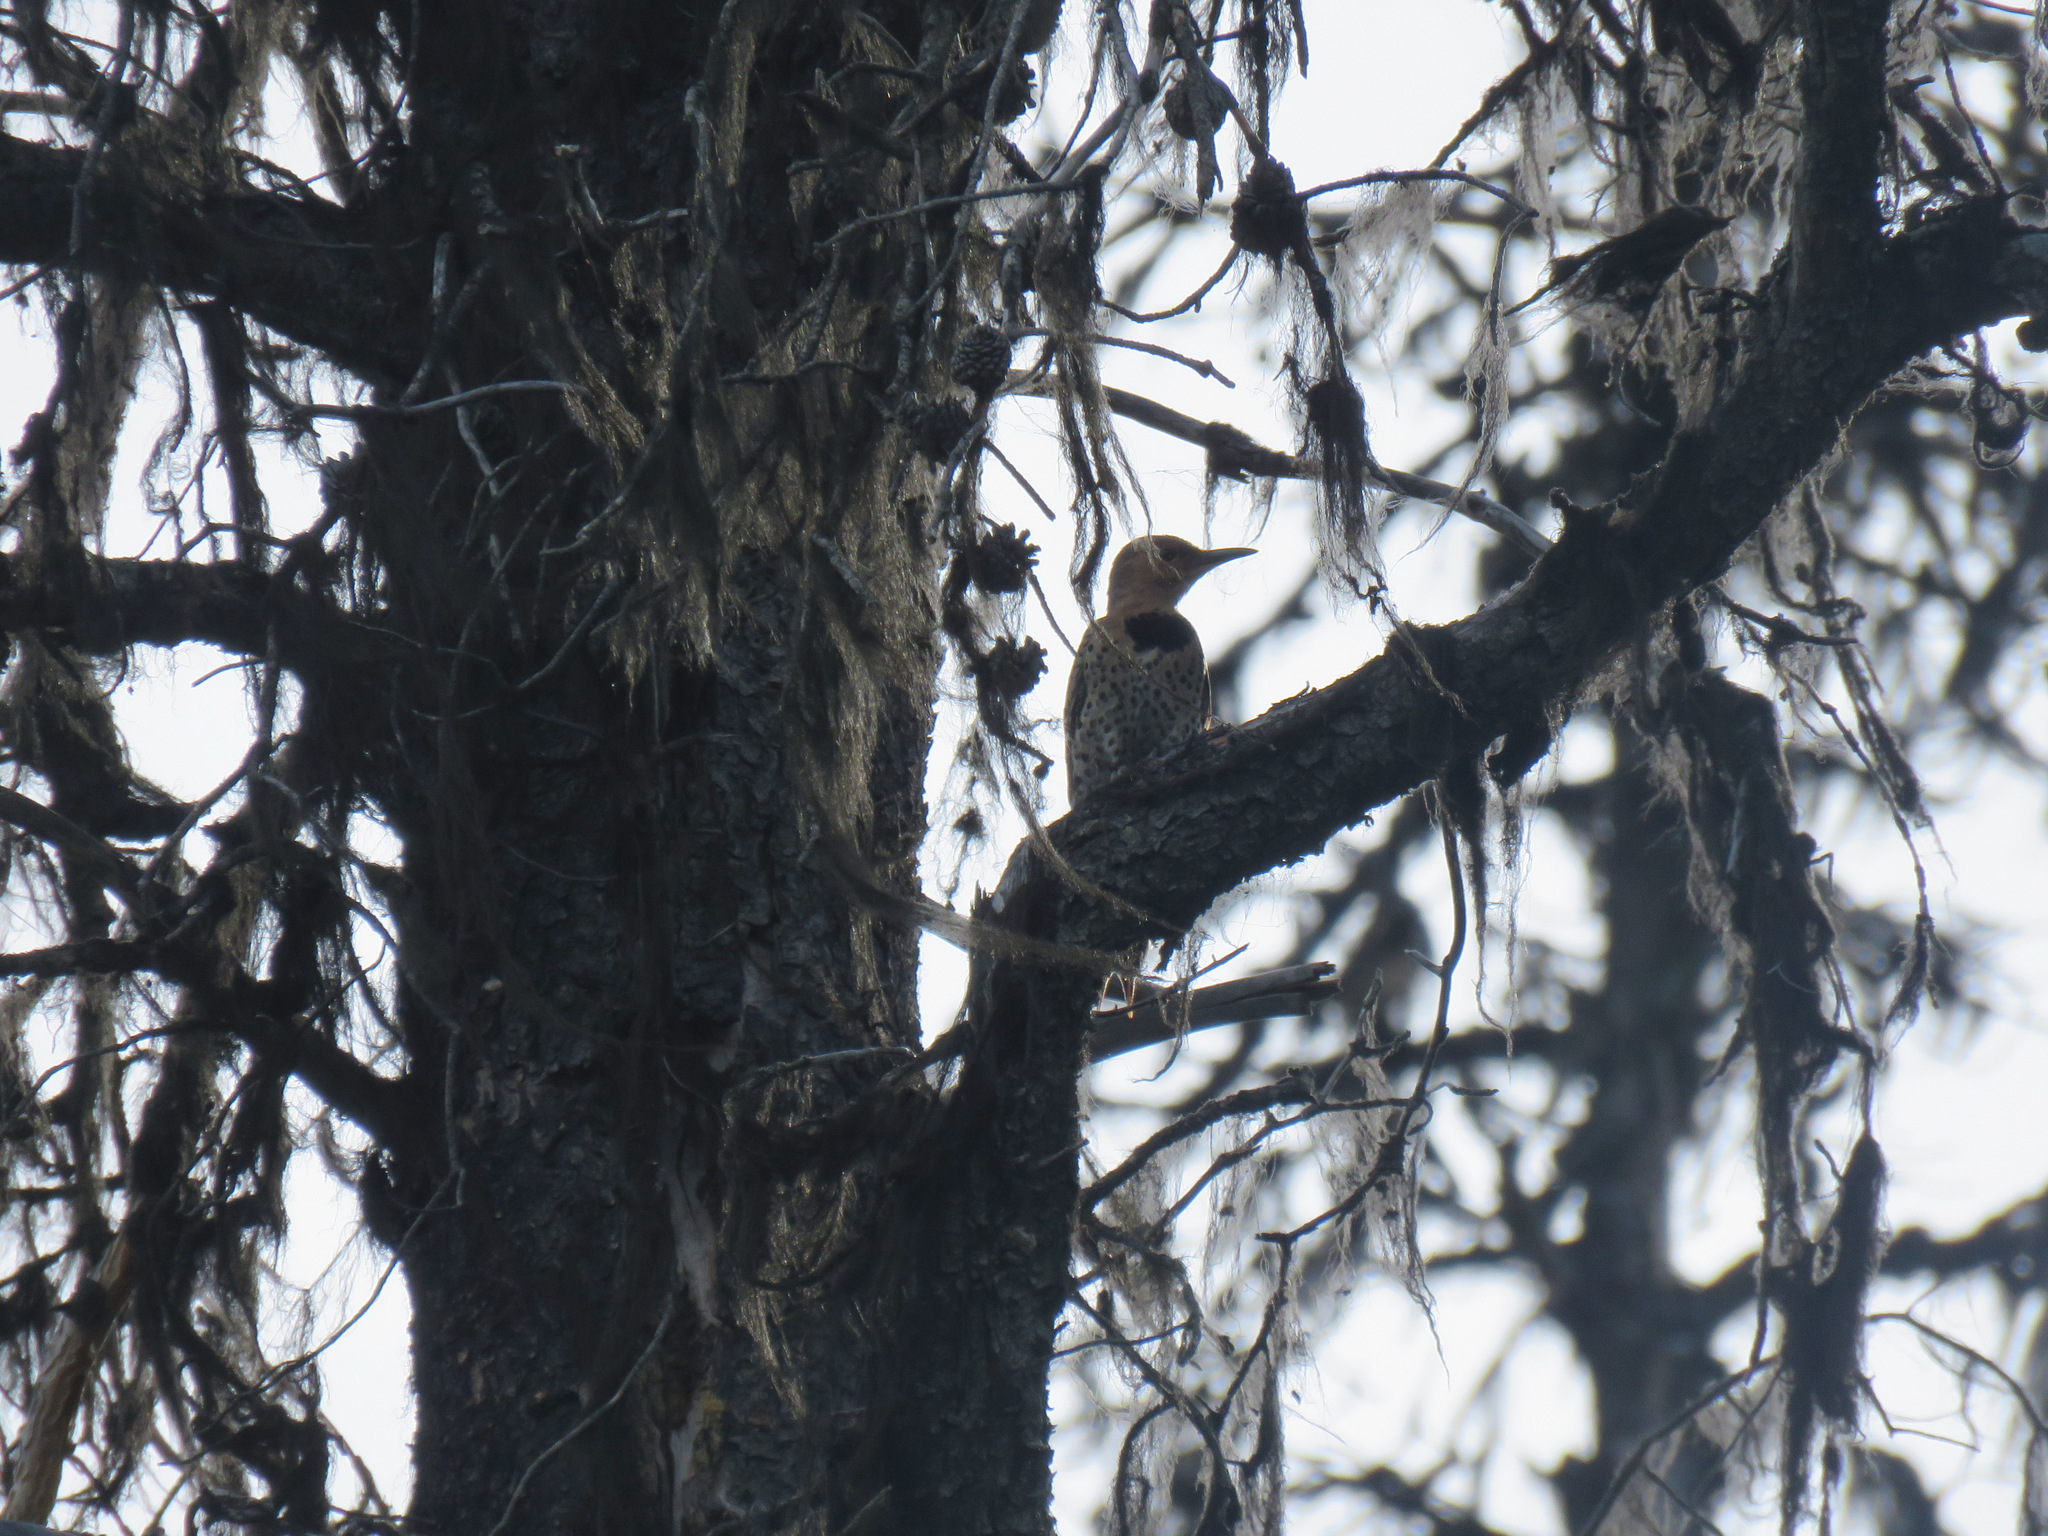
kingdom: Animalia
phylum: Chordata
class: Aves
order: Piciformes
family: Picidae
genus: Colaptes
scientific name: Colaptes auratus
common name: Northern flicker
